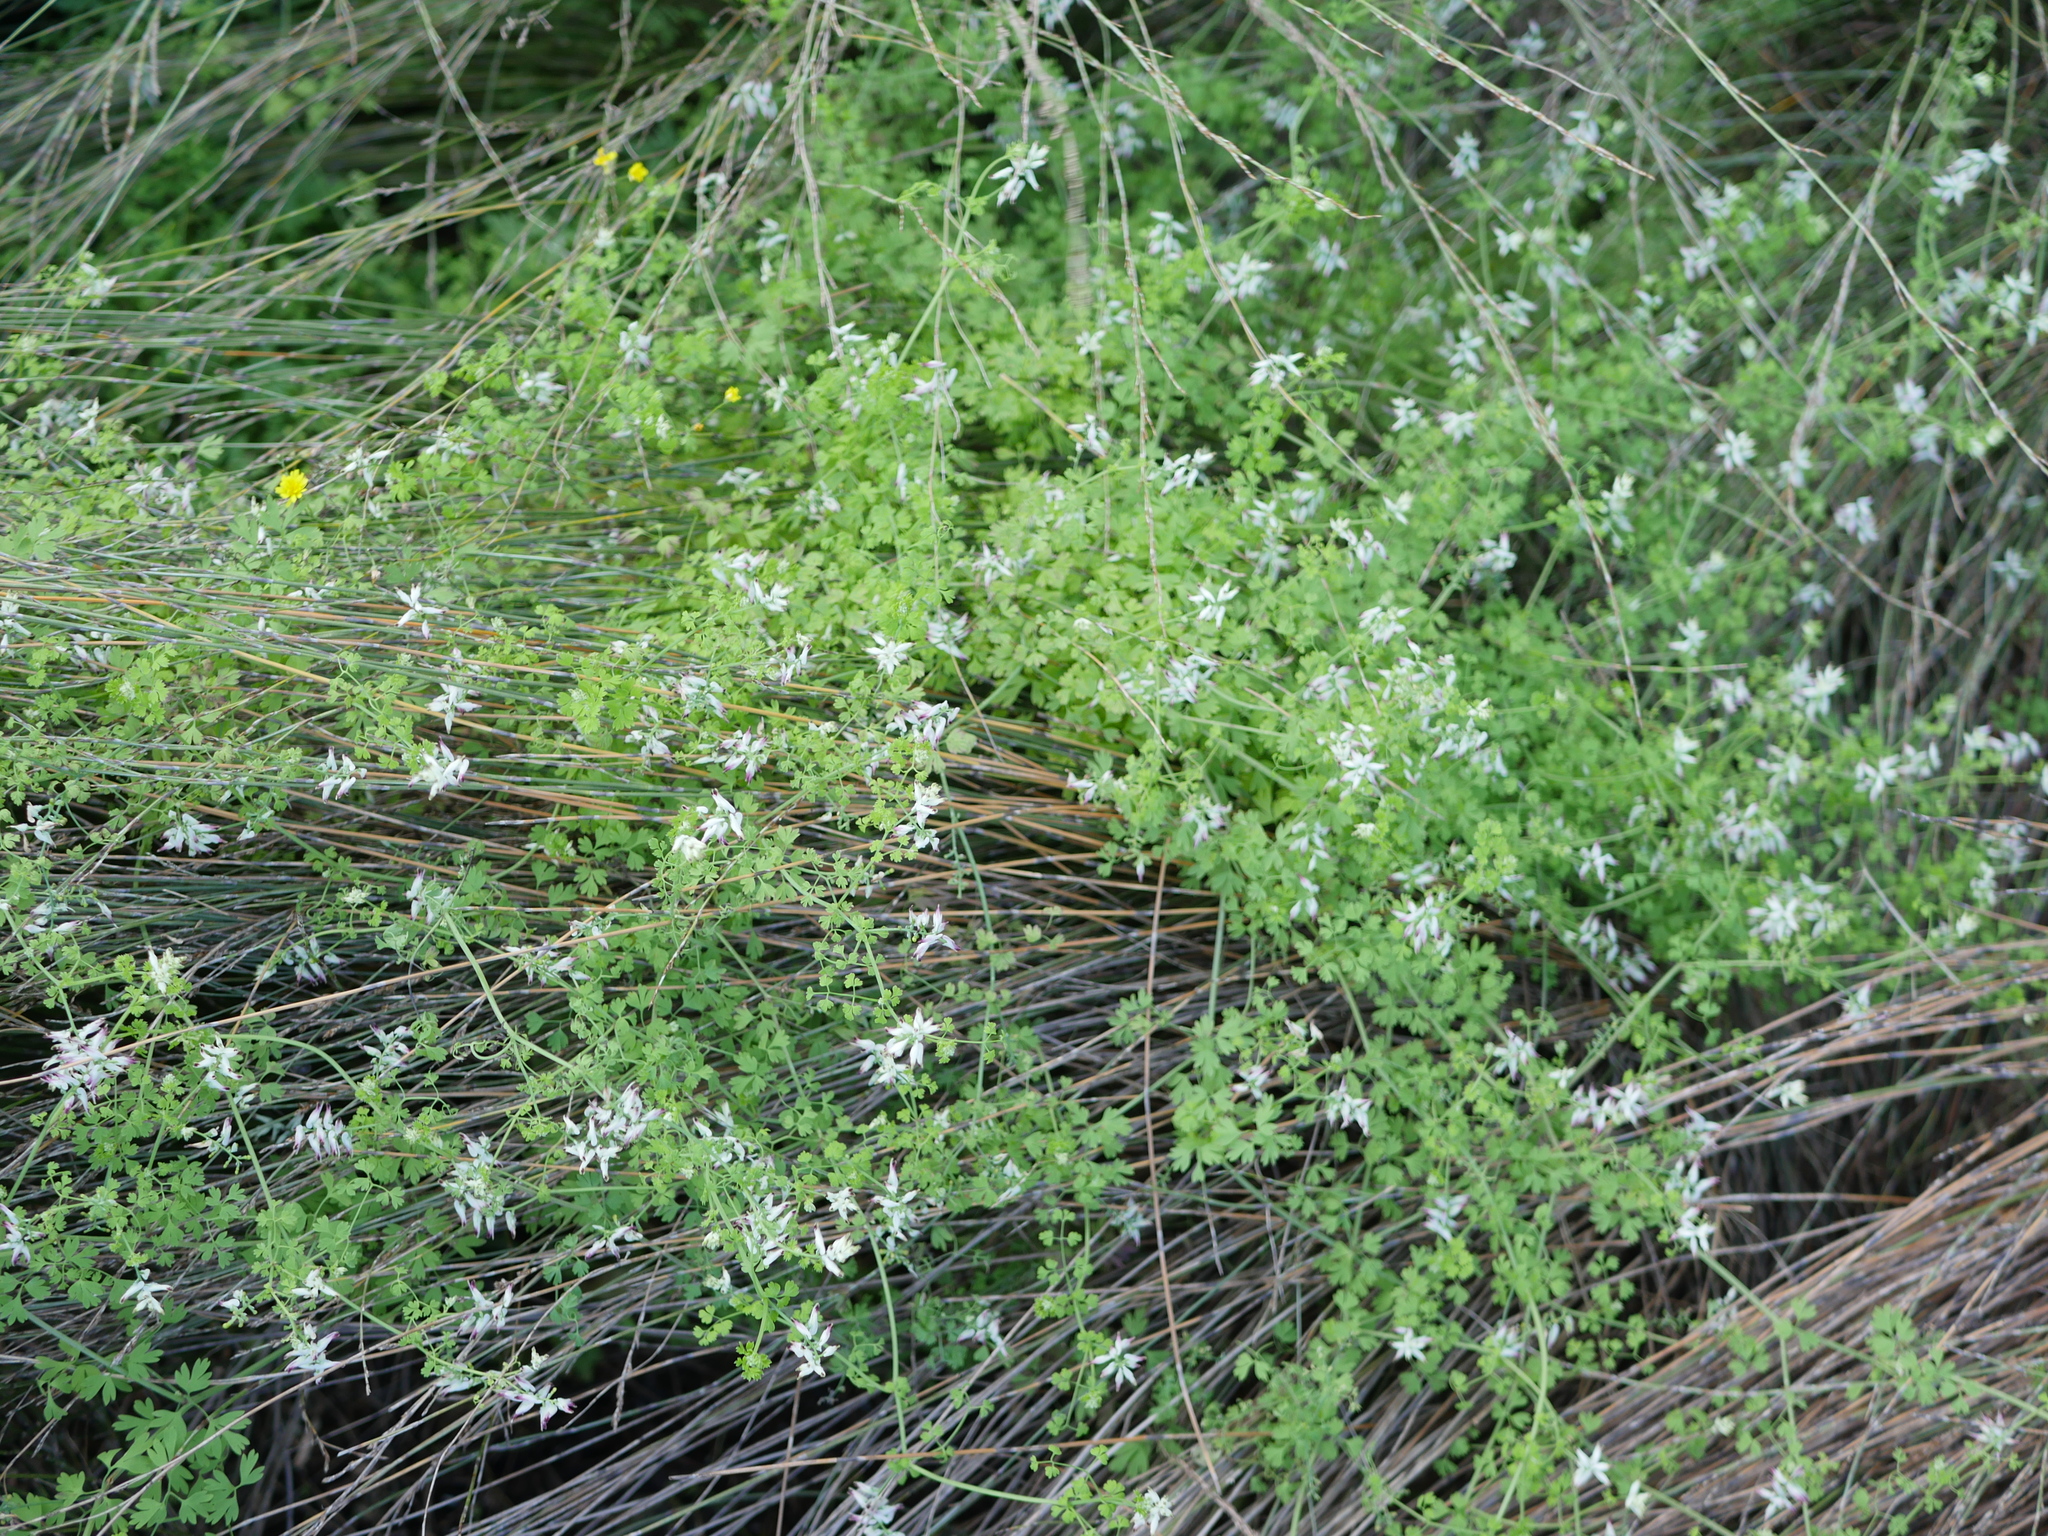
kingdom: Plantae
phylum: Tracheophyta
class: Magnoliopsida
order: Ranunculales
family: Papaveraceae
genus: Fumaria
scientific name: Fumaria capreolata
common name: White ramping-fumitory
